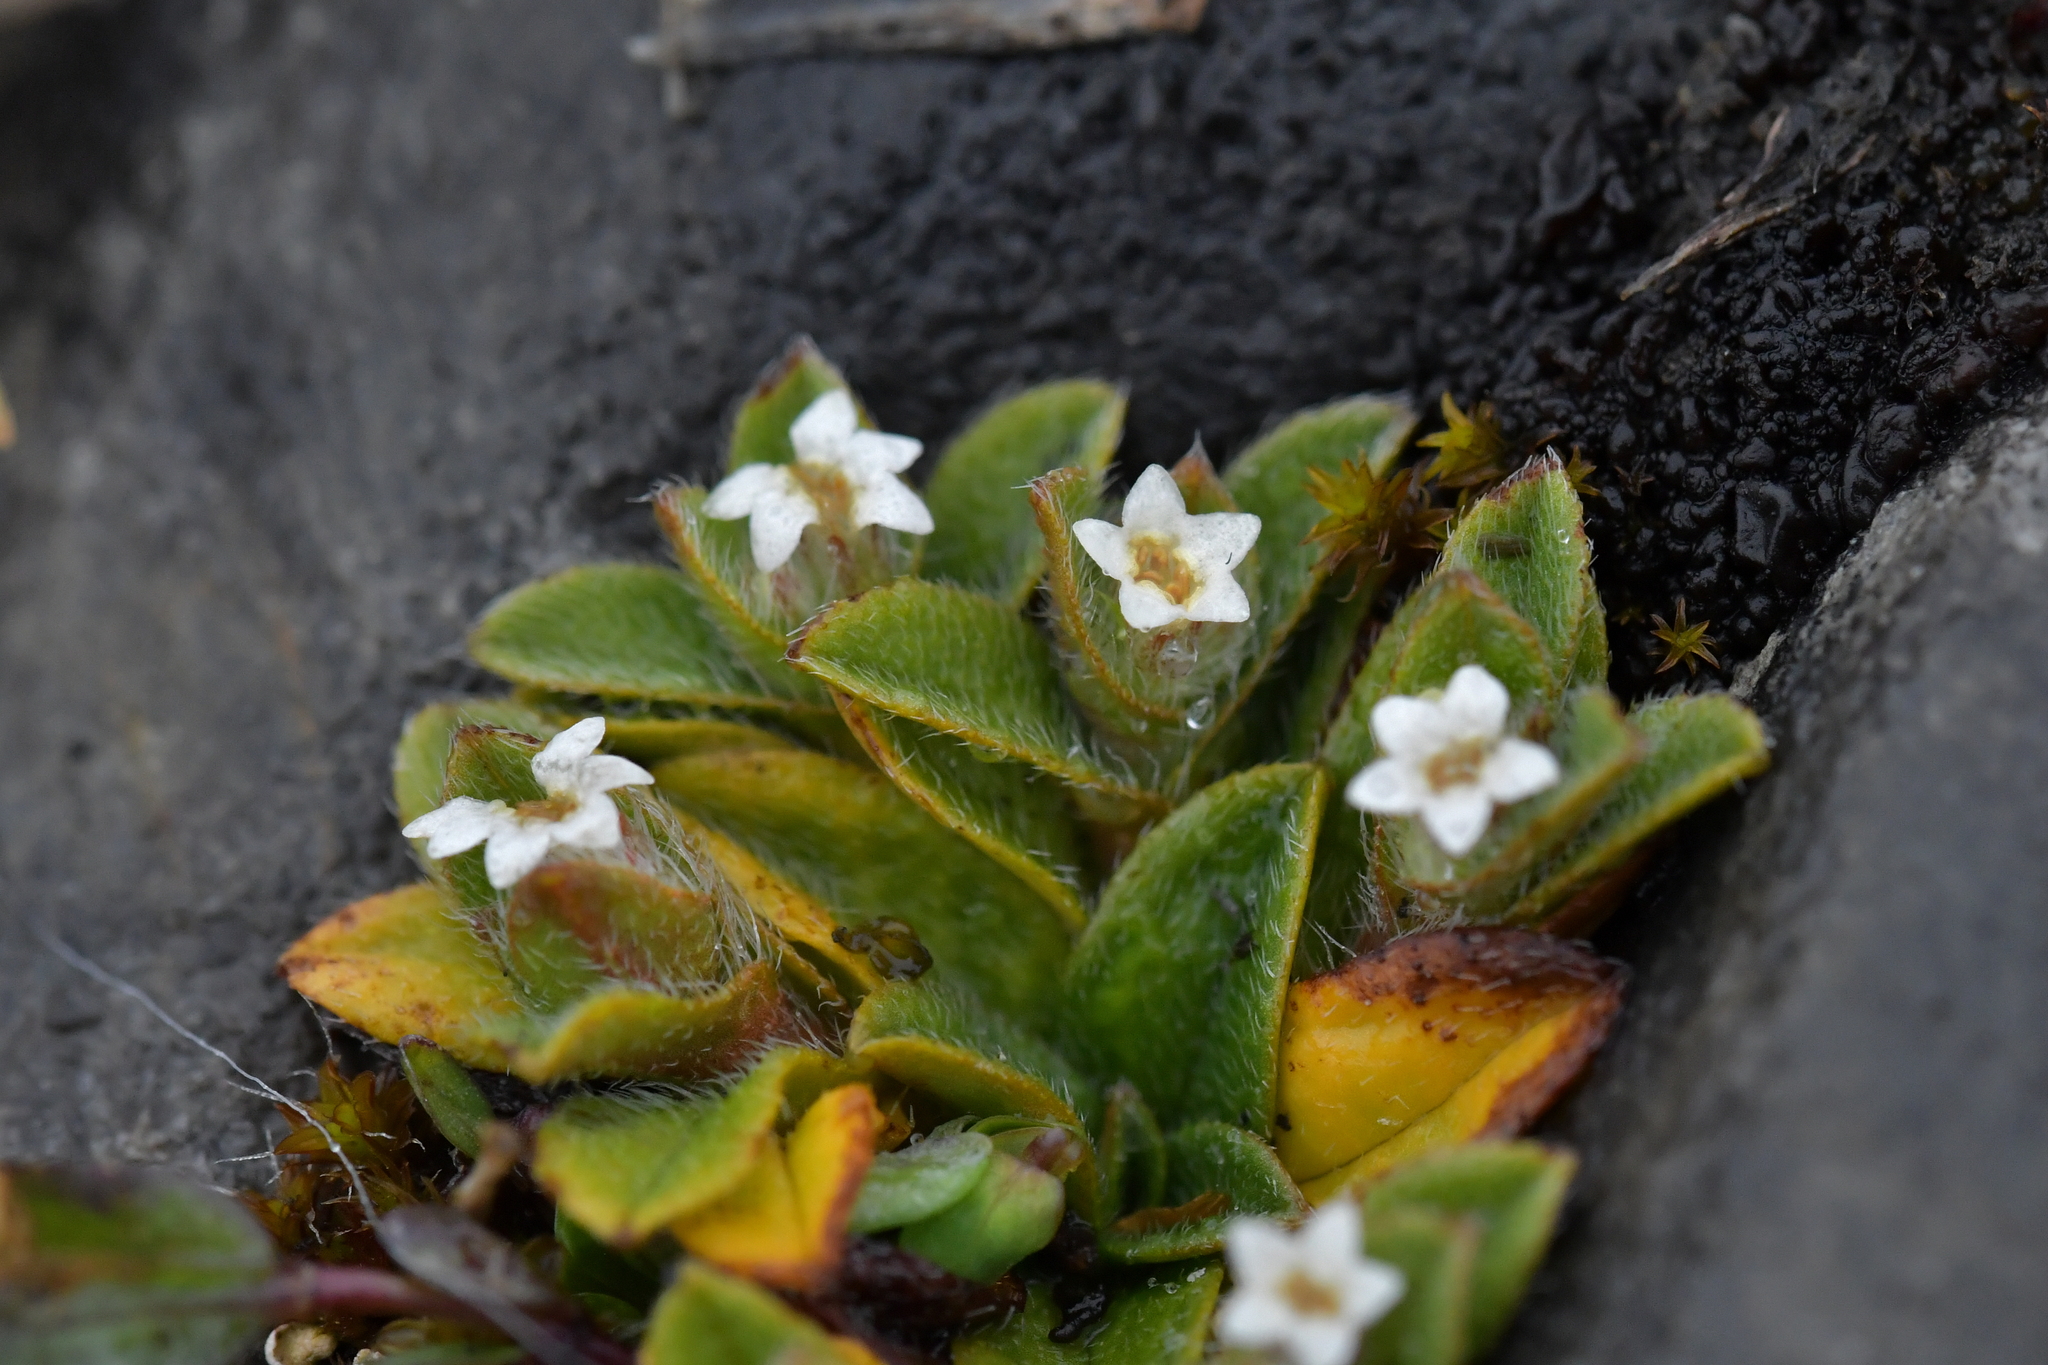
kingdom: Plantae
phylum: Tracheophyta
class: Magnoliopsida
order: Boraginales
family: Boraginaceae
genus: Myosotis
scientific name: Myosotis antarctica
